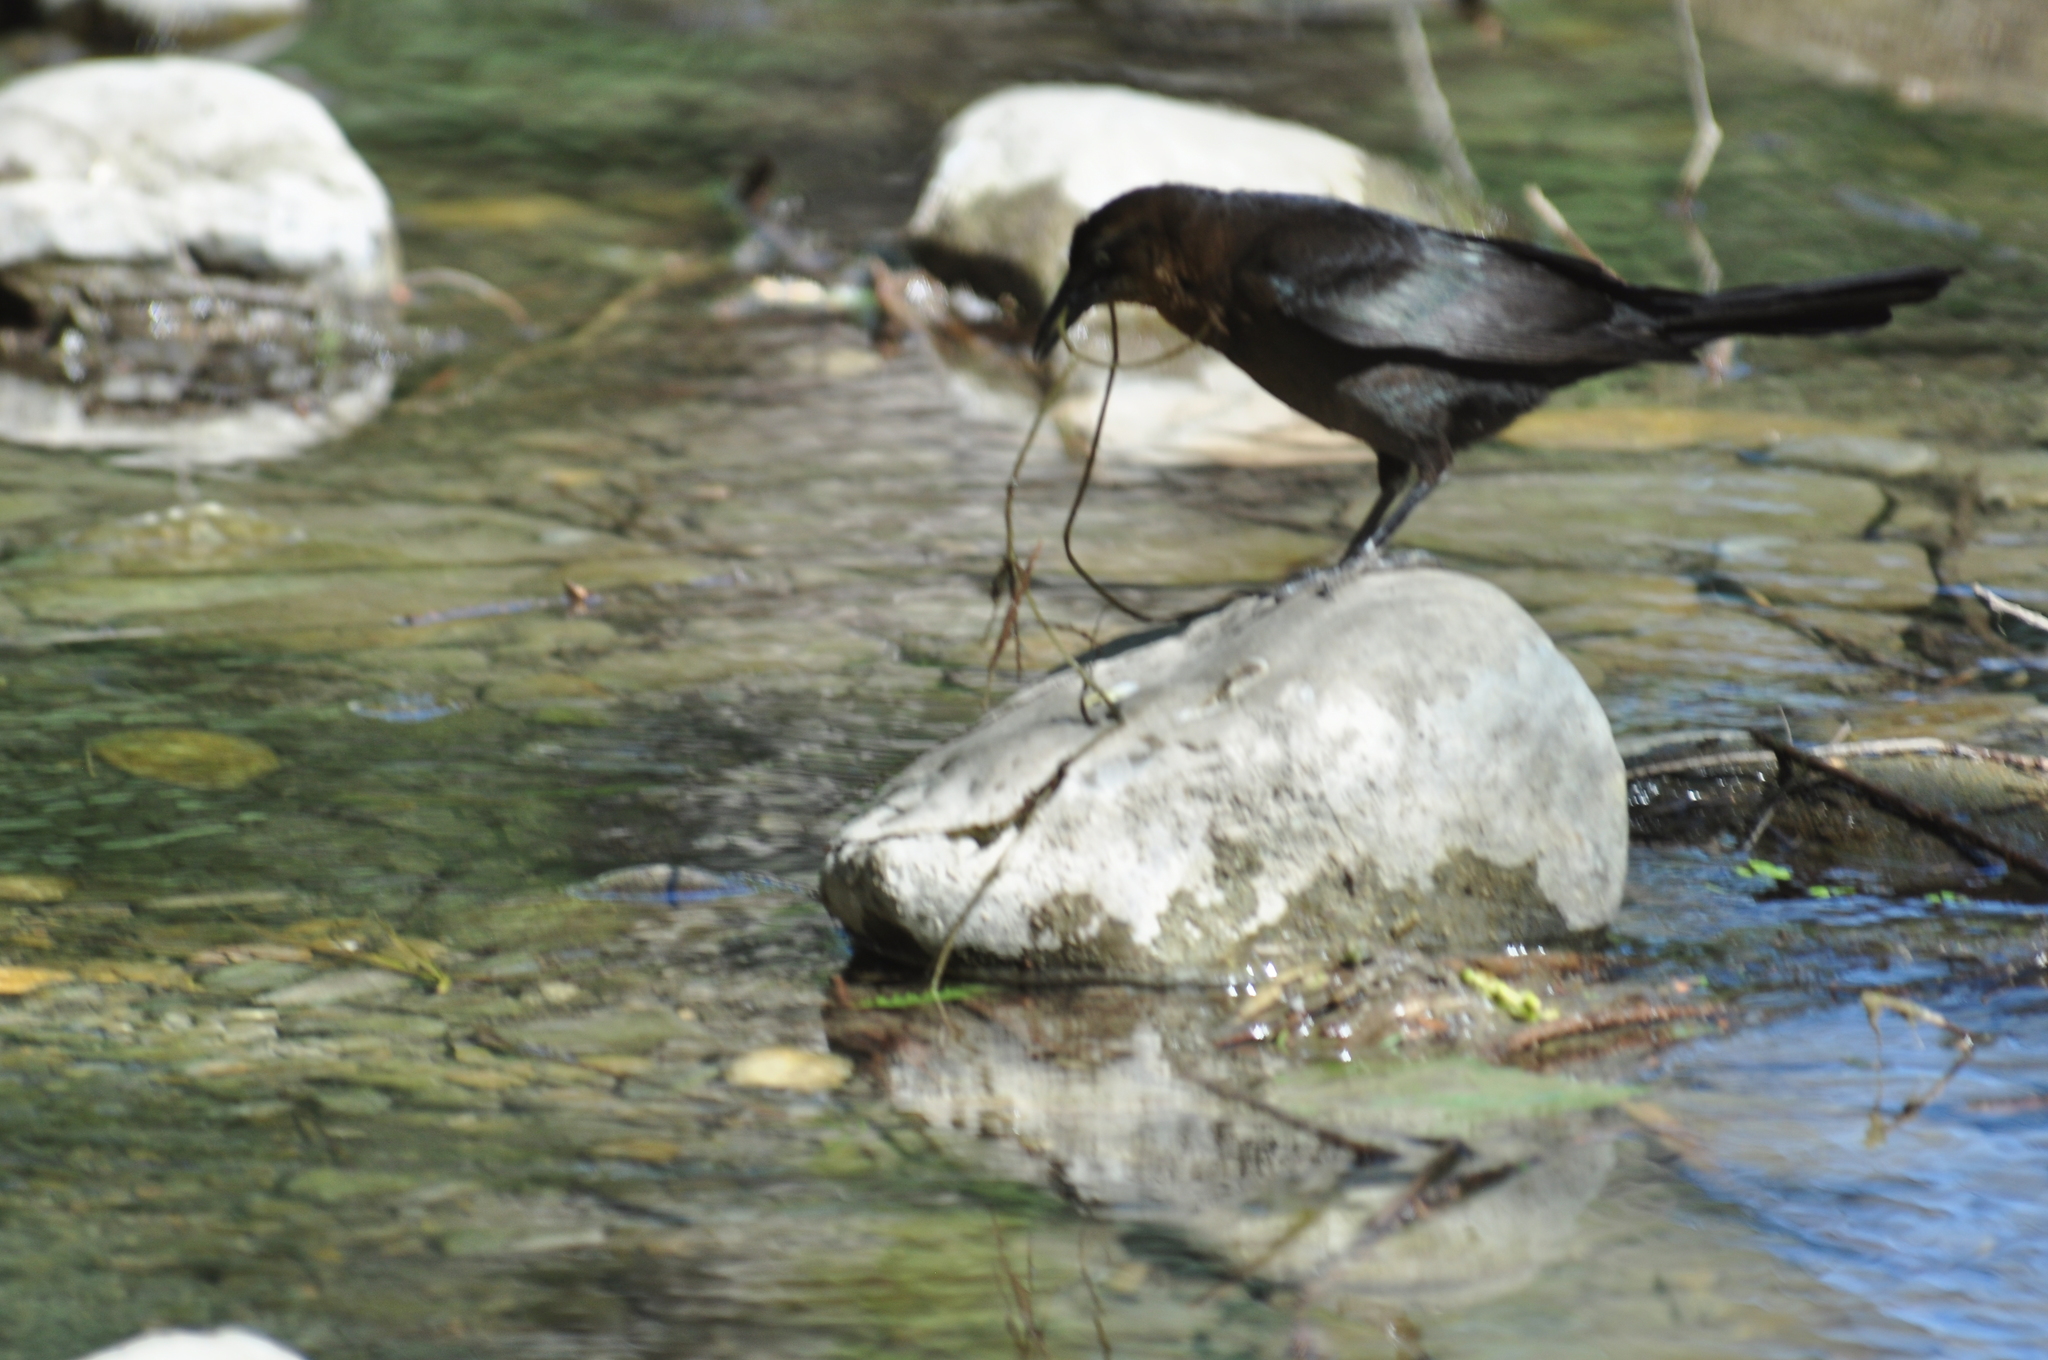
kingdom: Animalia
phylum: Chordata
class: Aves
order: Passeriformes
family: Icteridae
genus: Quiscalus
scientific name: Quiscalus mexicanus
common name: Great-tailed grackle
